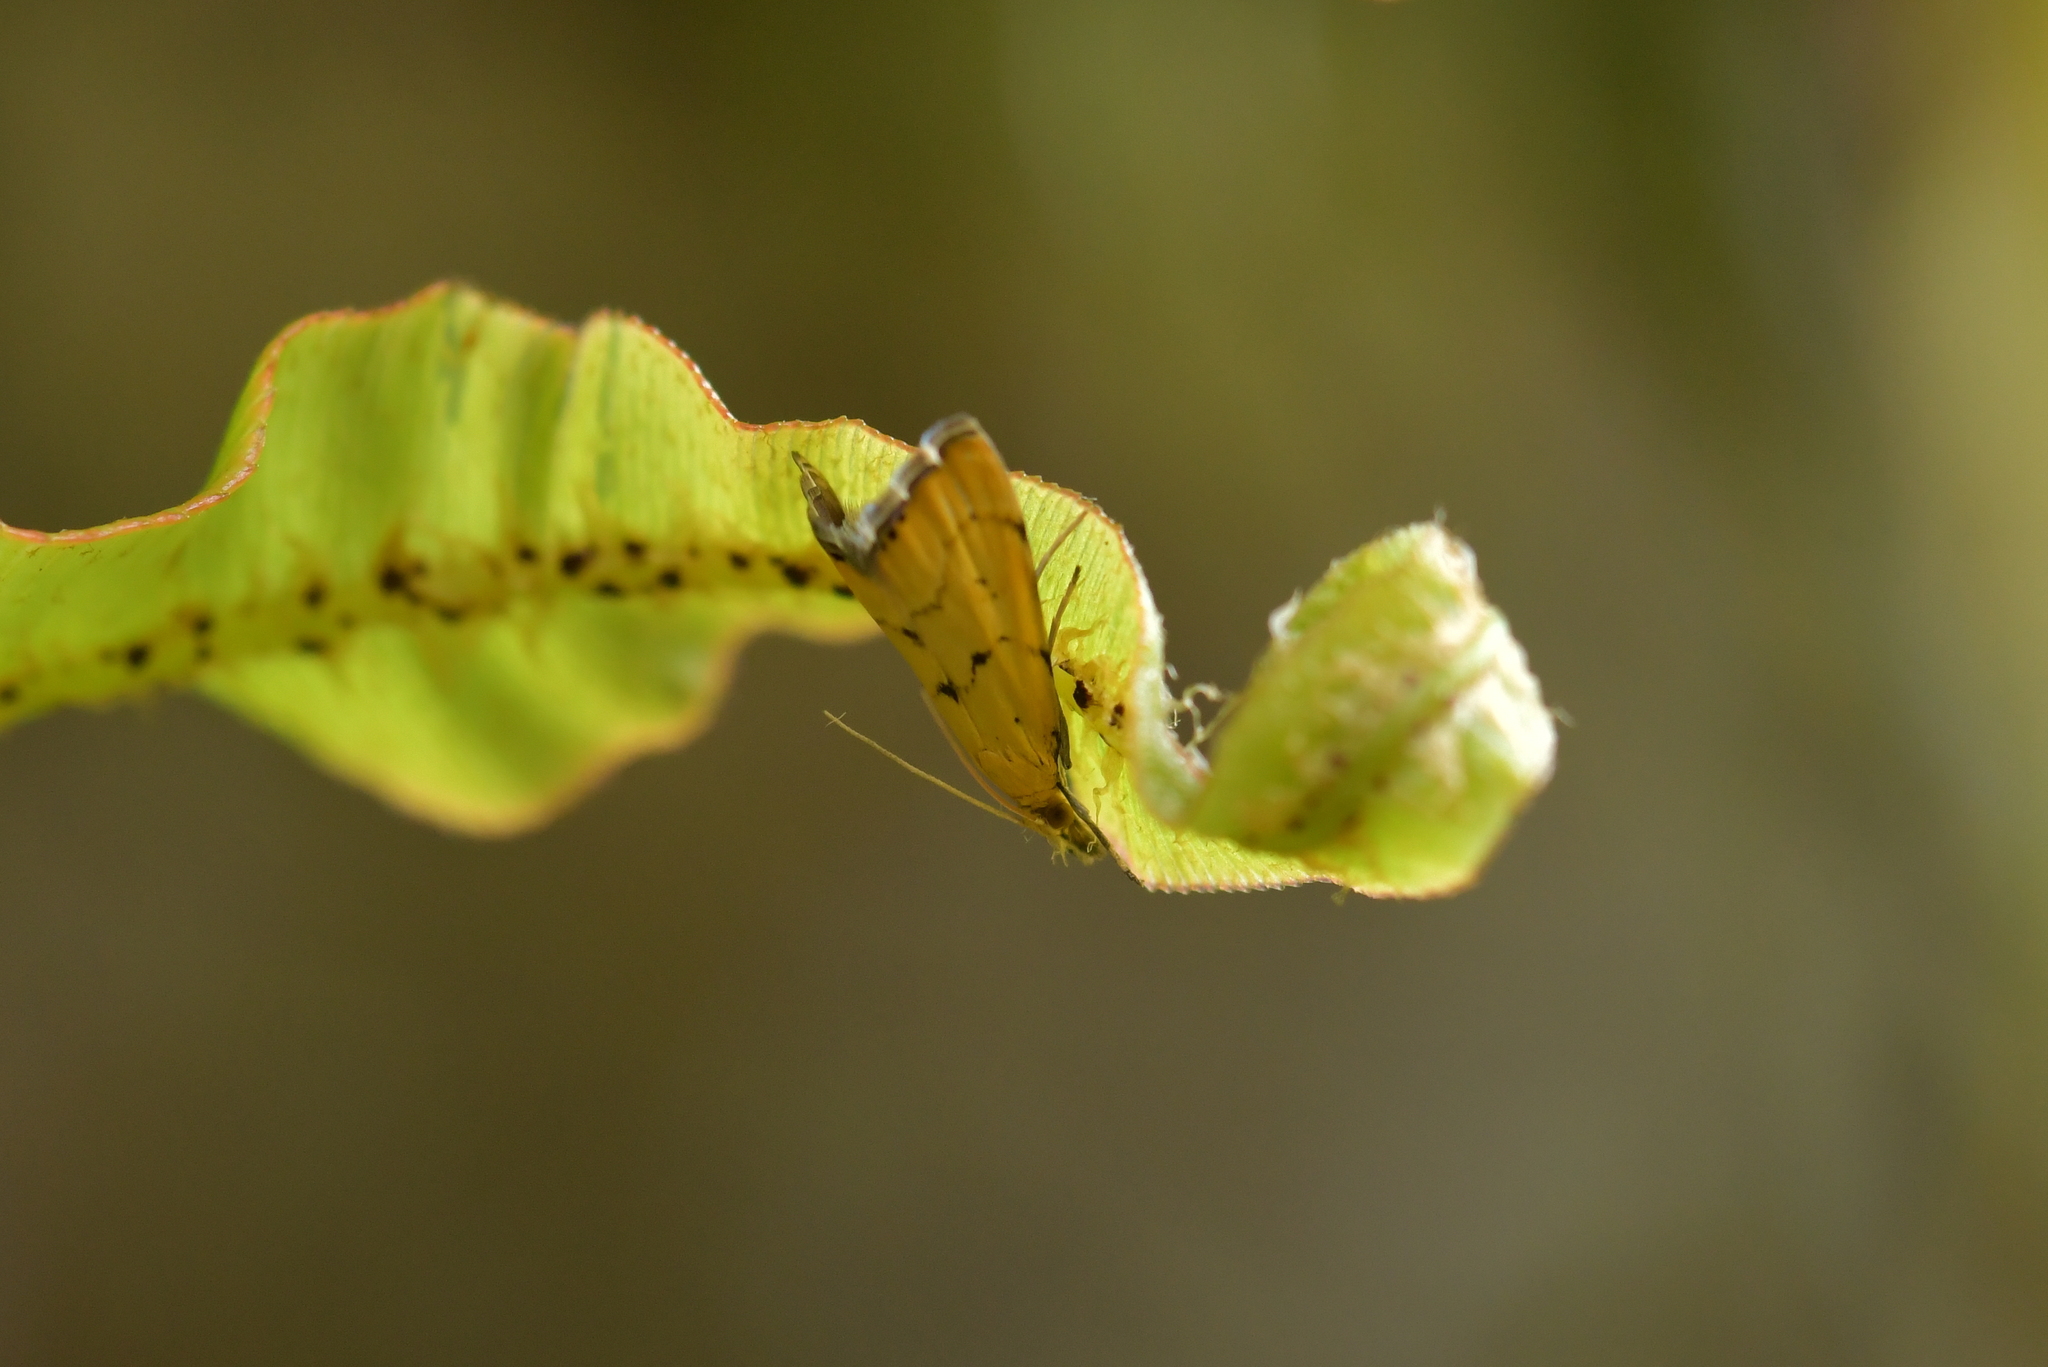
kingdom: Animalia
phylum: Arthropoda
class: Insecta
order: Lepidoptera
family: Crambidae
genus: Glaucocharis
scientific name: Glaucocharis holanthes
